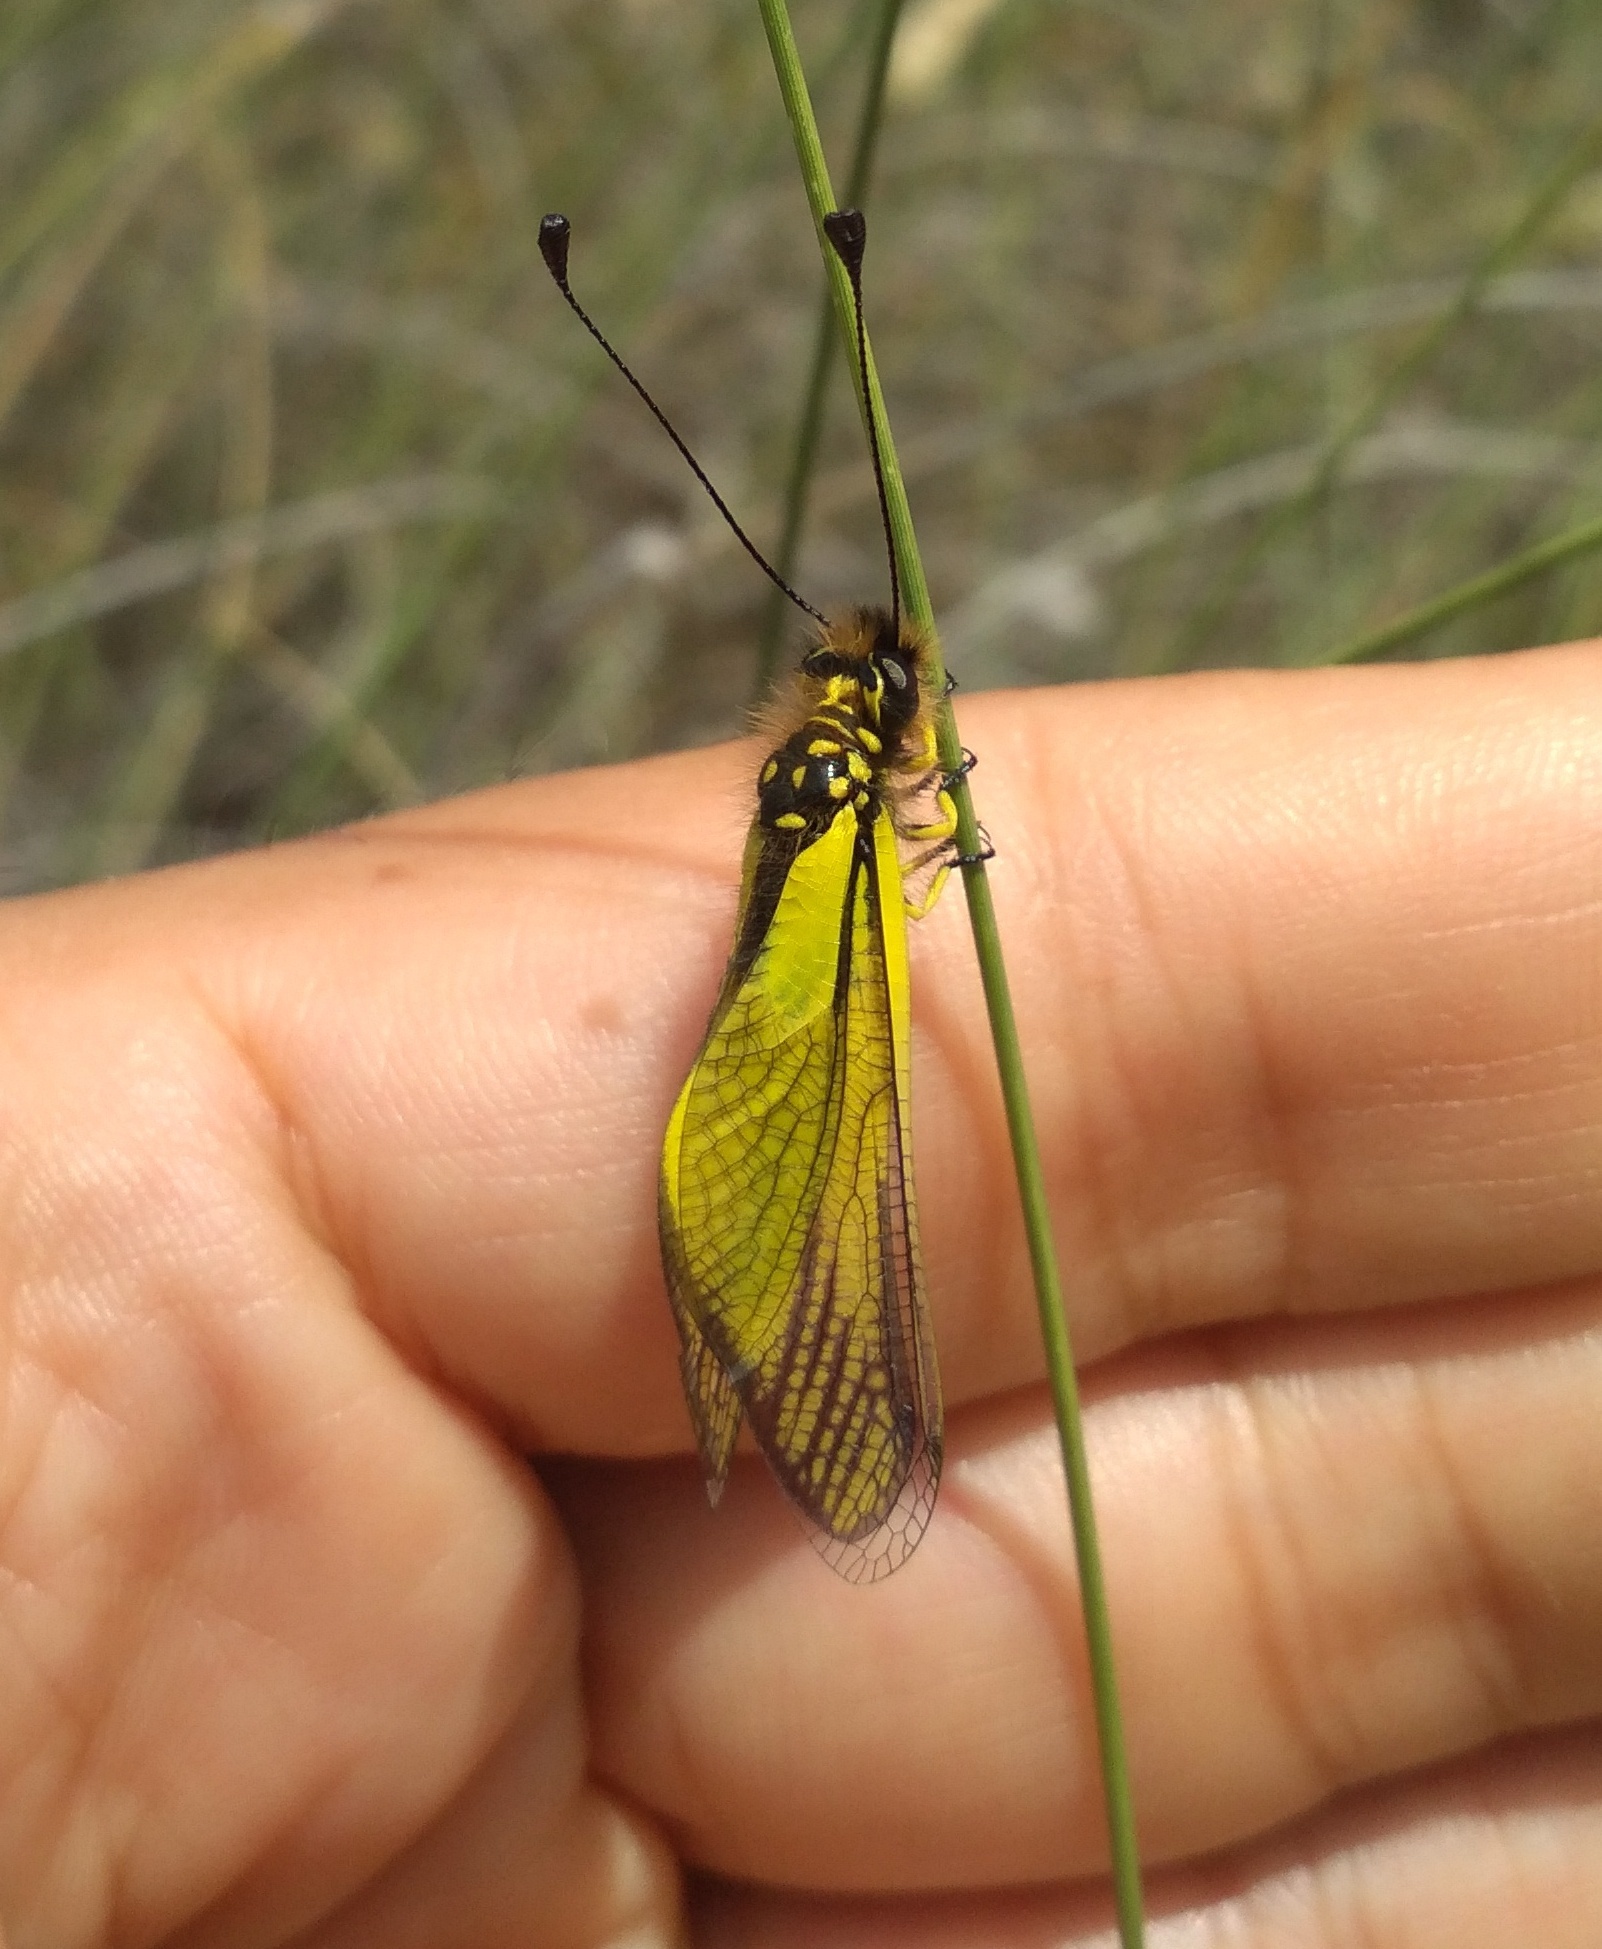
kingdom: Animalia
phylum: Arthropoda
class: Insecta
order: Neuroptera
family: Ascalaphidae
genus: Libelloides
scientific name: Libelloides latinus
